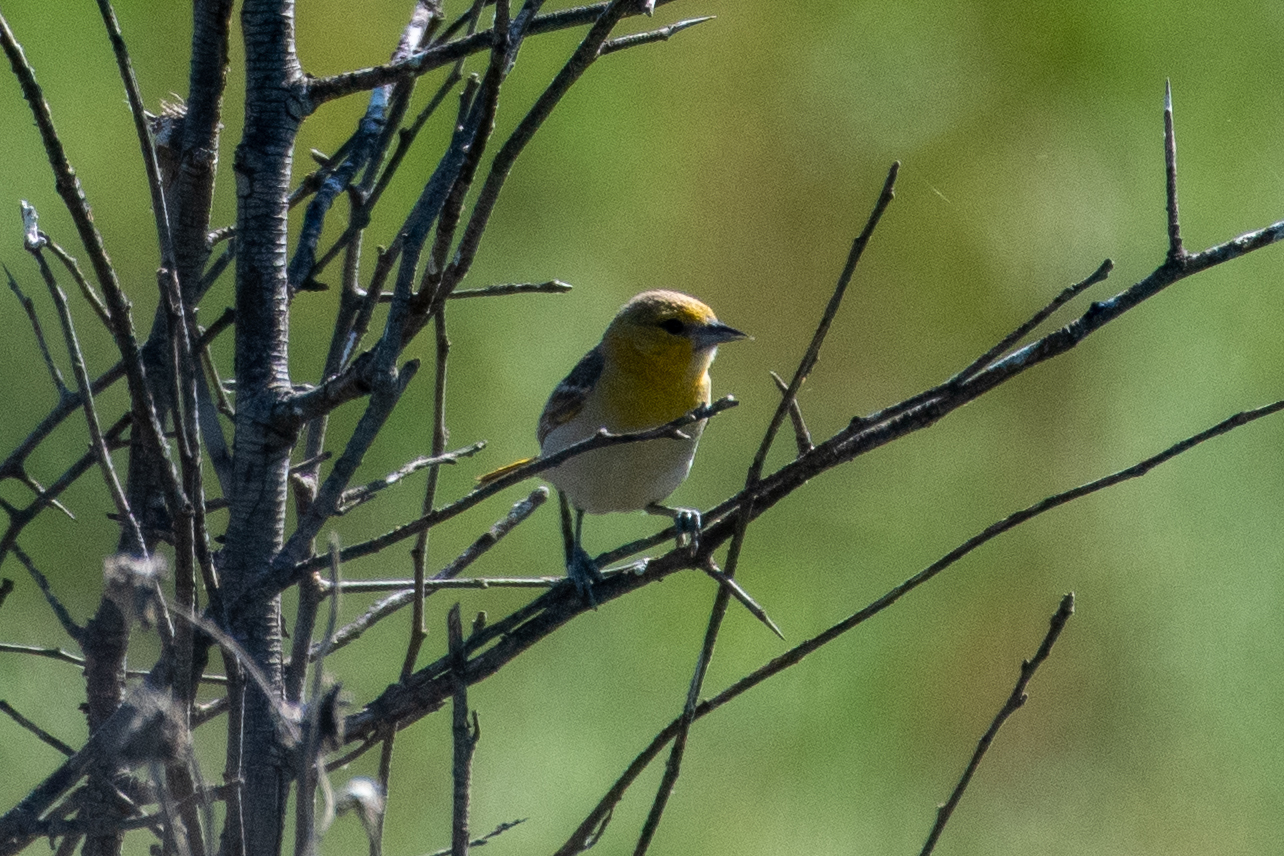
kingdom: Animalia
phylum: Chordata
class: Aves
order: Passeriformes
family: Icteridae
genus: Icterus
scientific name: Icterus bullockii
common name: Bullock's oriole
